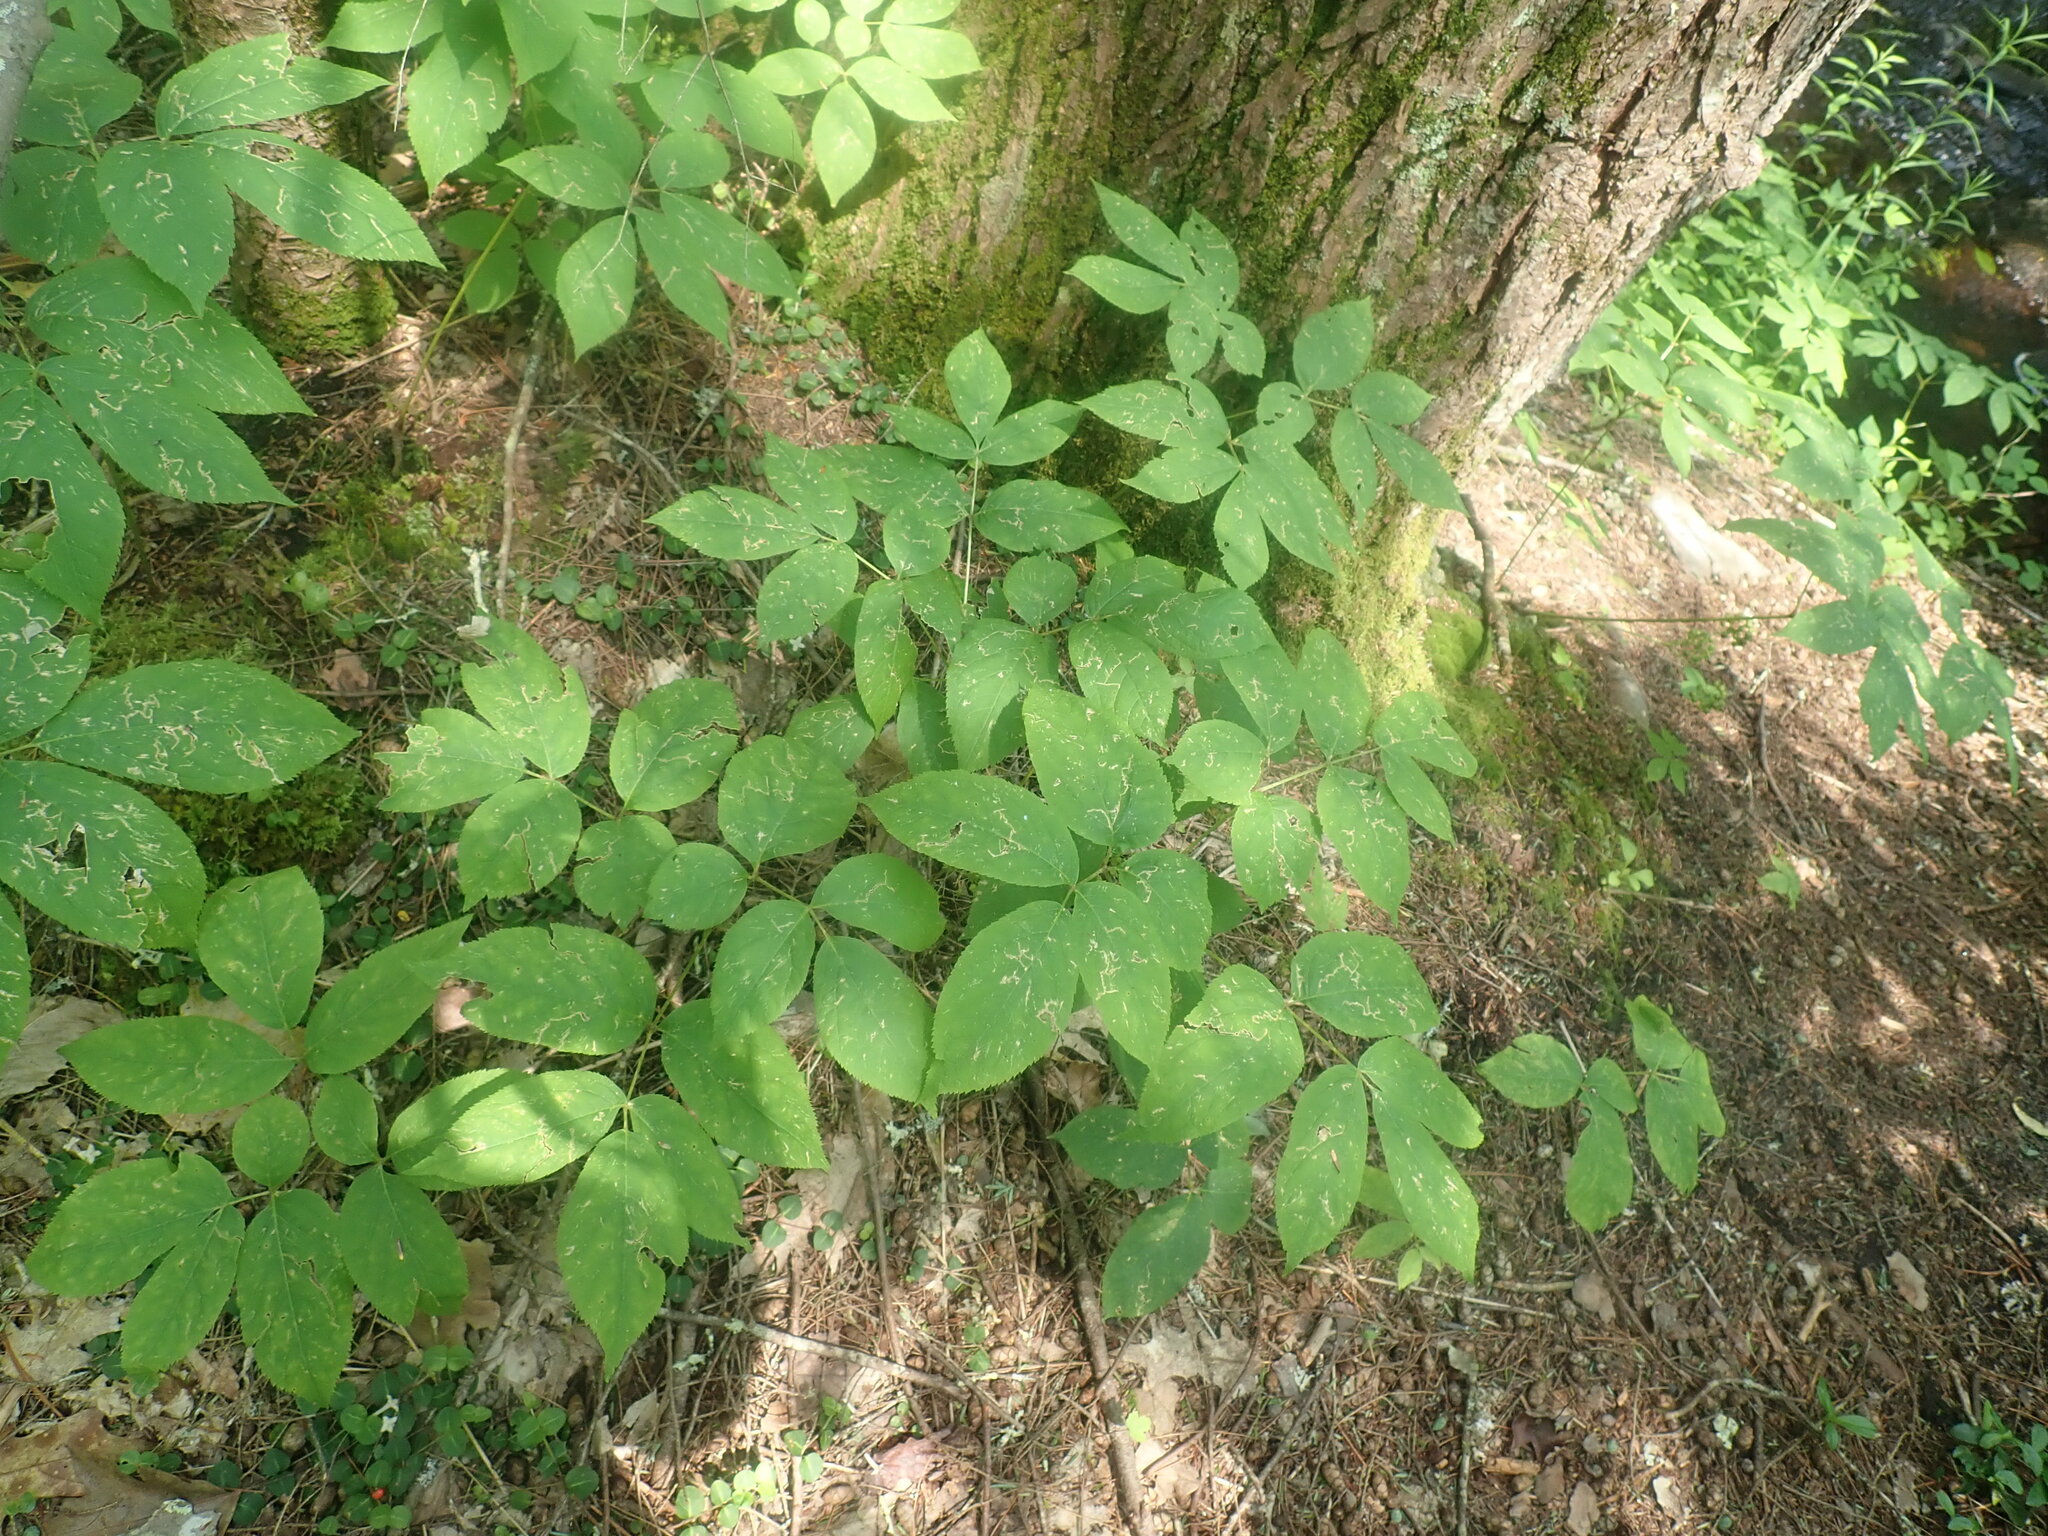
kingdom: Plantae
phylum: Tracheophyta
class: Magnoliopsida
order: Apiales
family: Araliaceae
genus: Aralia
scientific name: Aralia nudicaulis
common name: Wild sarsaparilla
